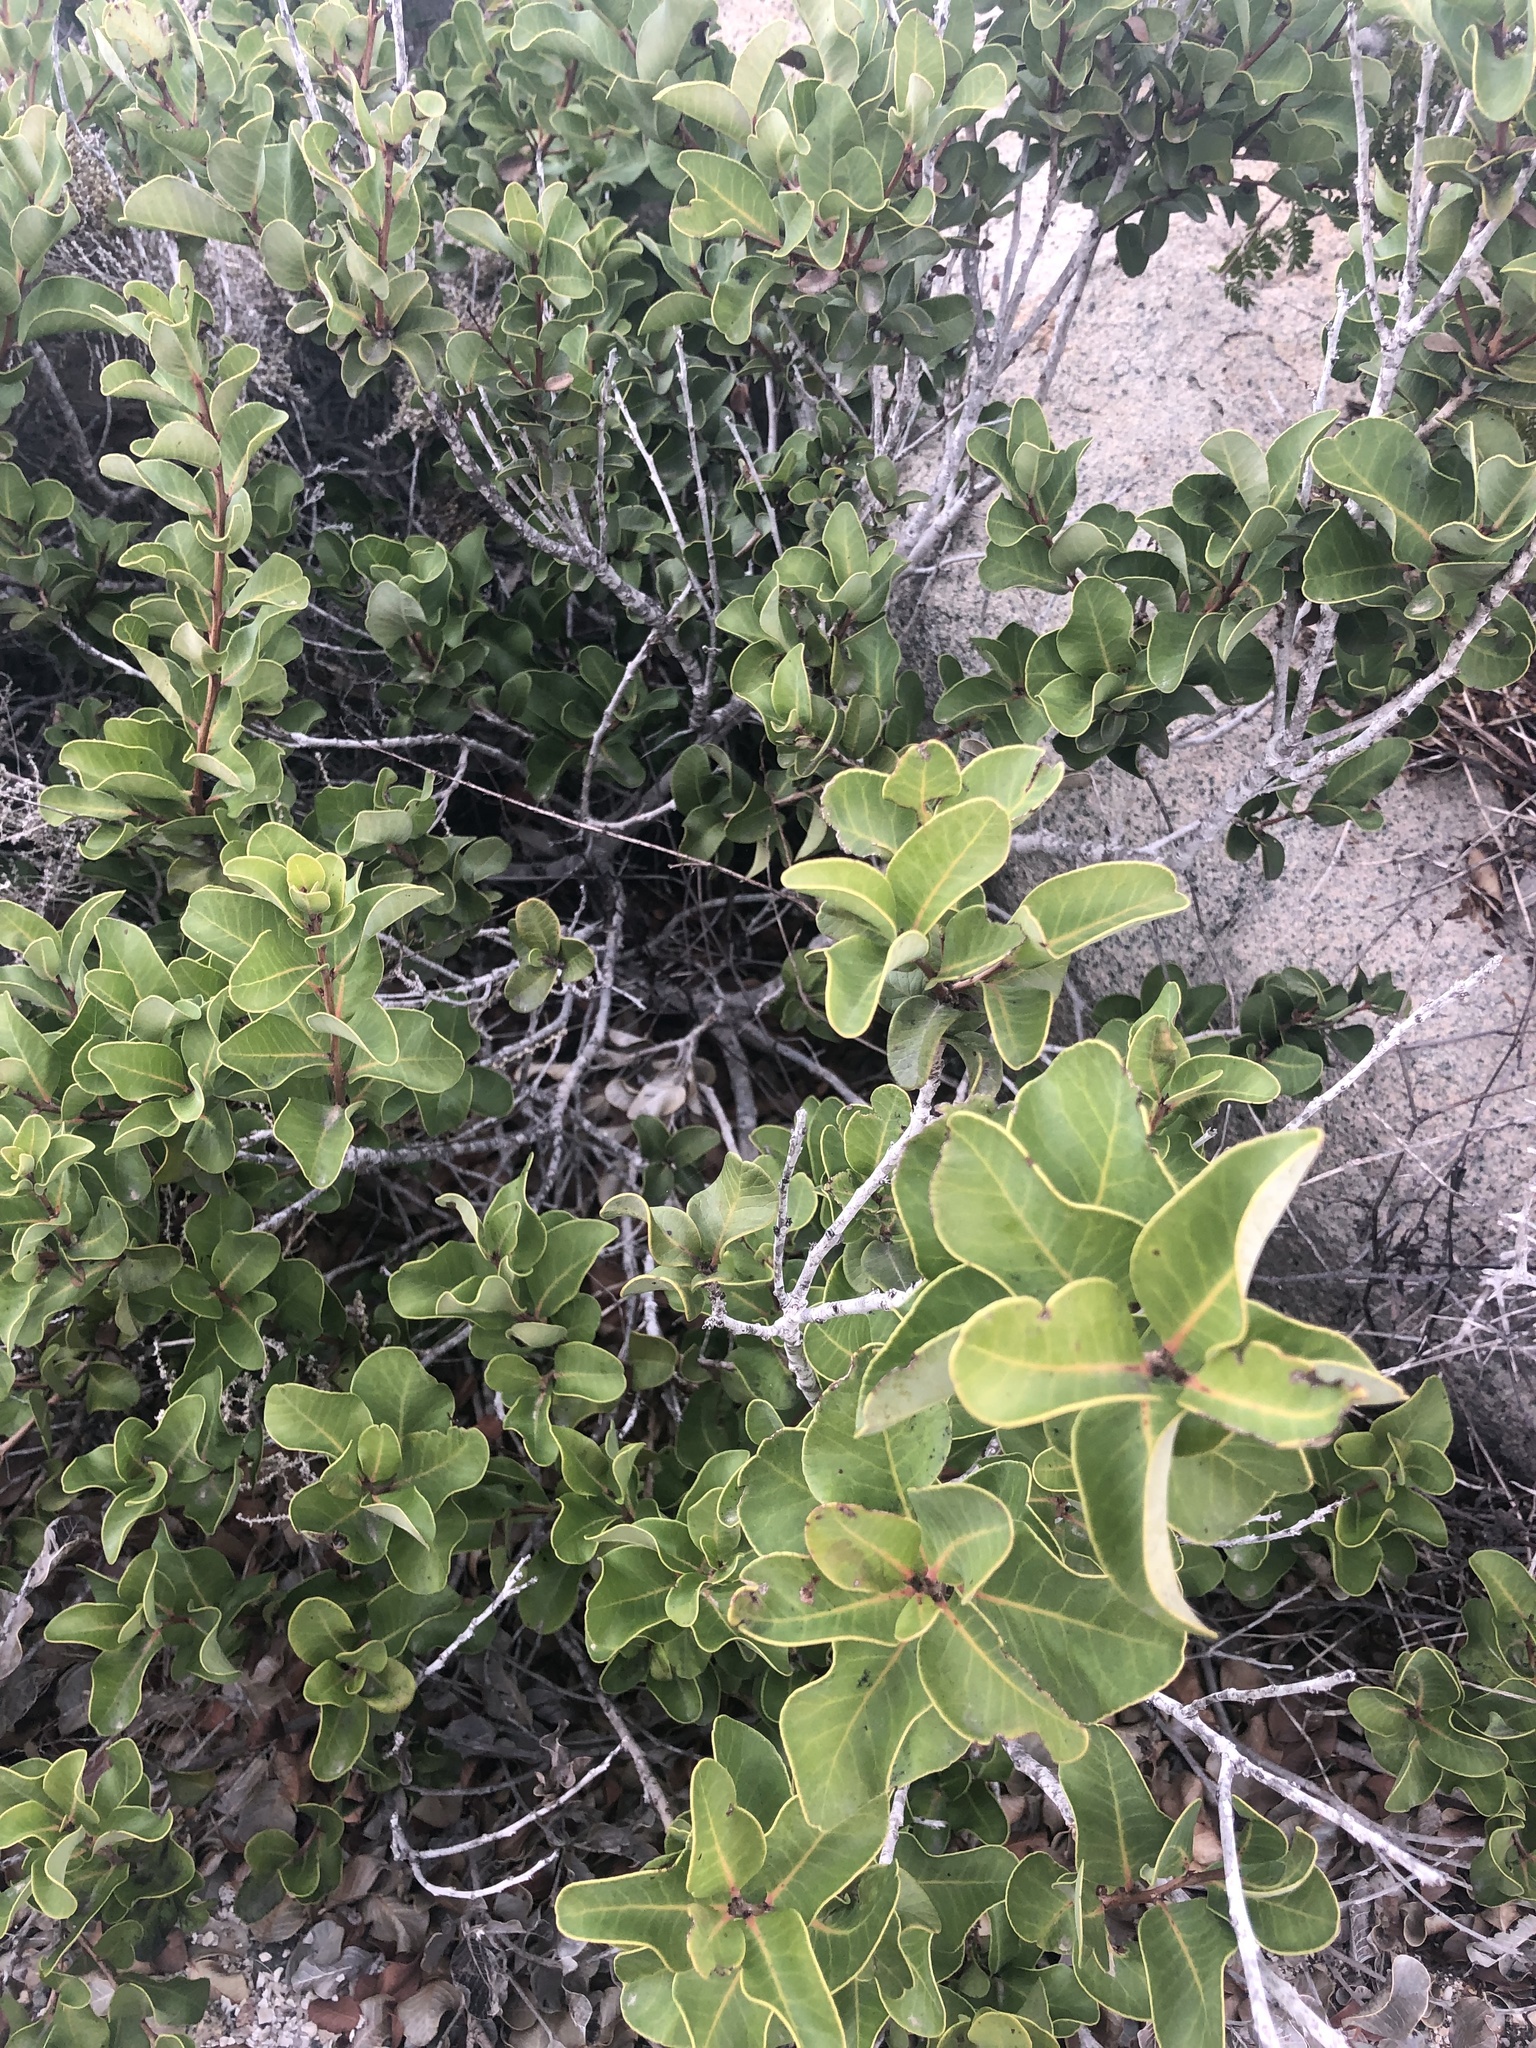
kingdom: Plantae
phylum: Tracheophyta
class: Magnoliopsida
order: Sapindales
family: Anacardiaceae
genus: Lithraea
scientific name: Lithraea caustica
